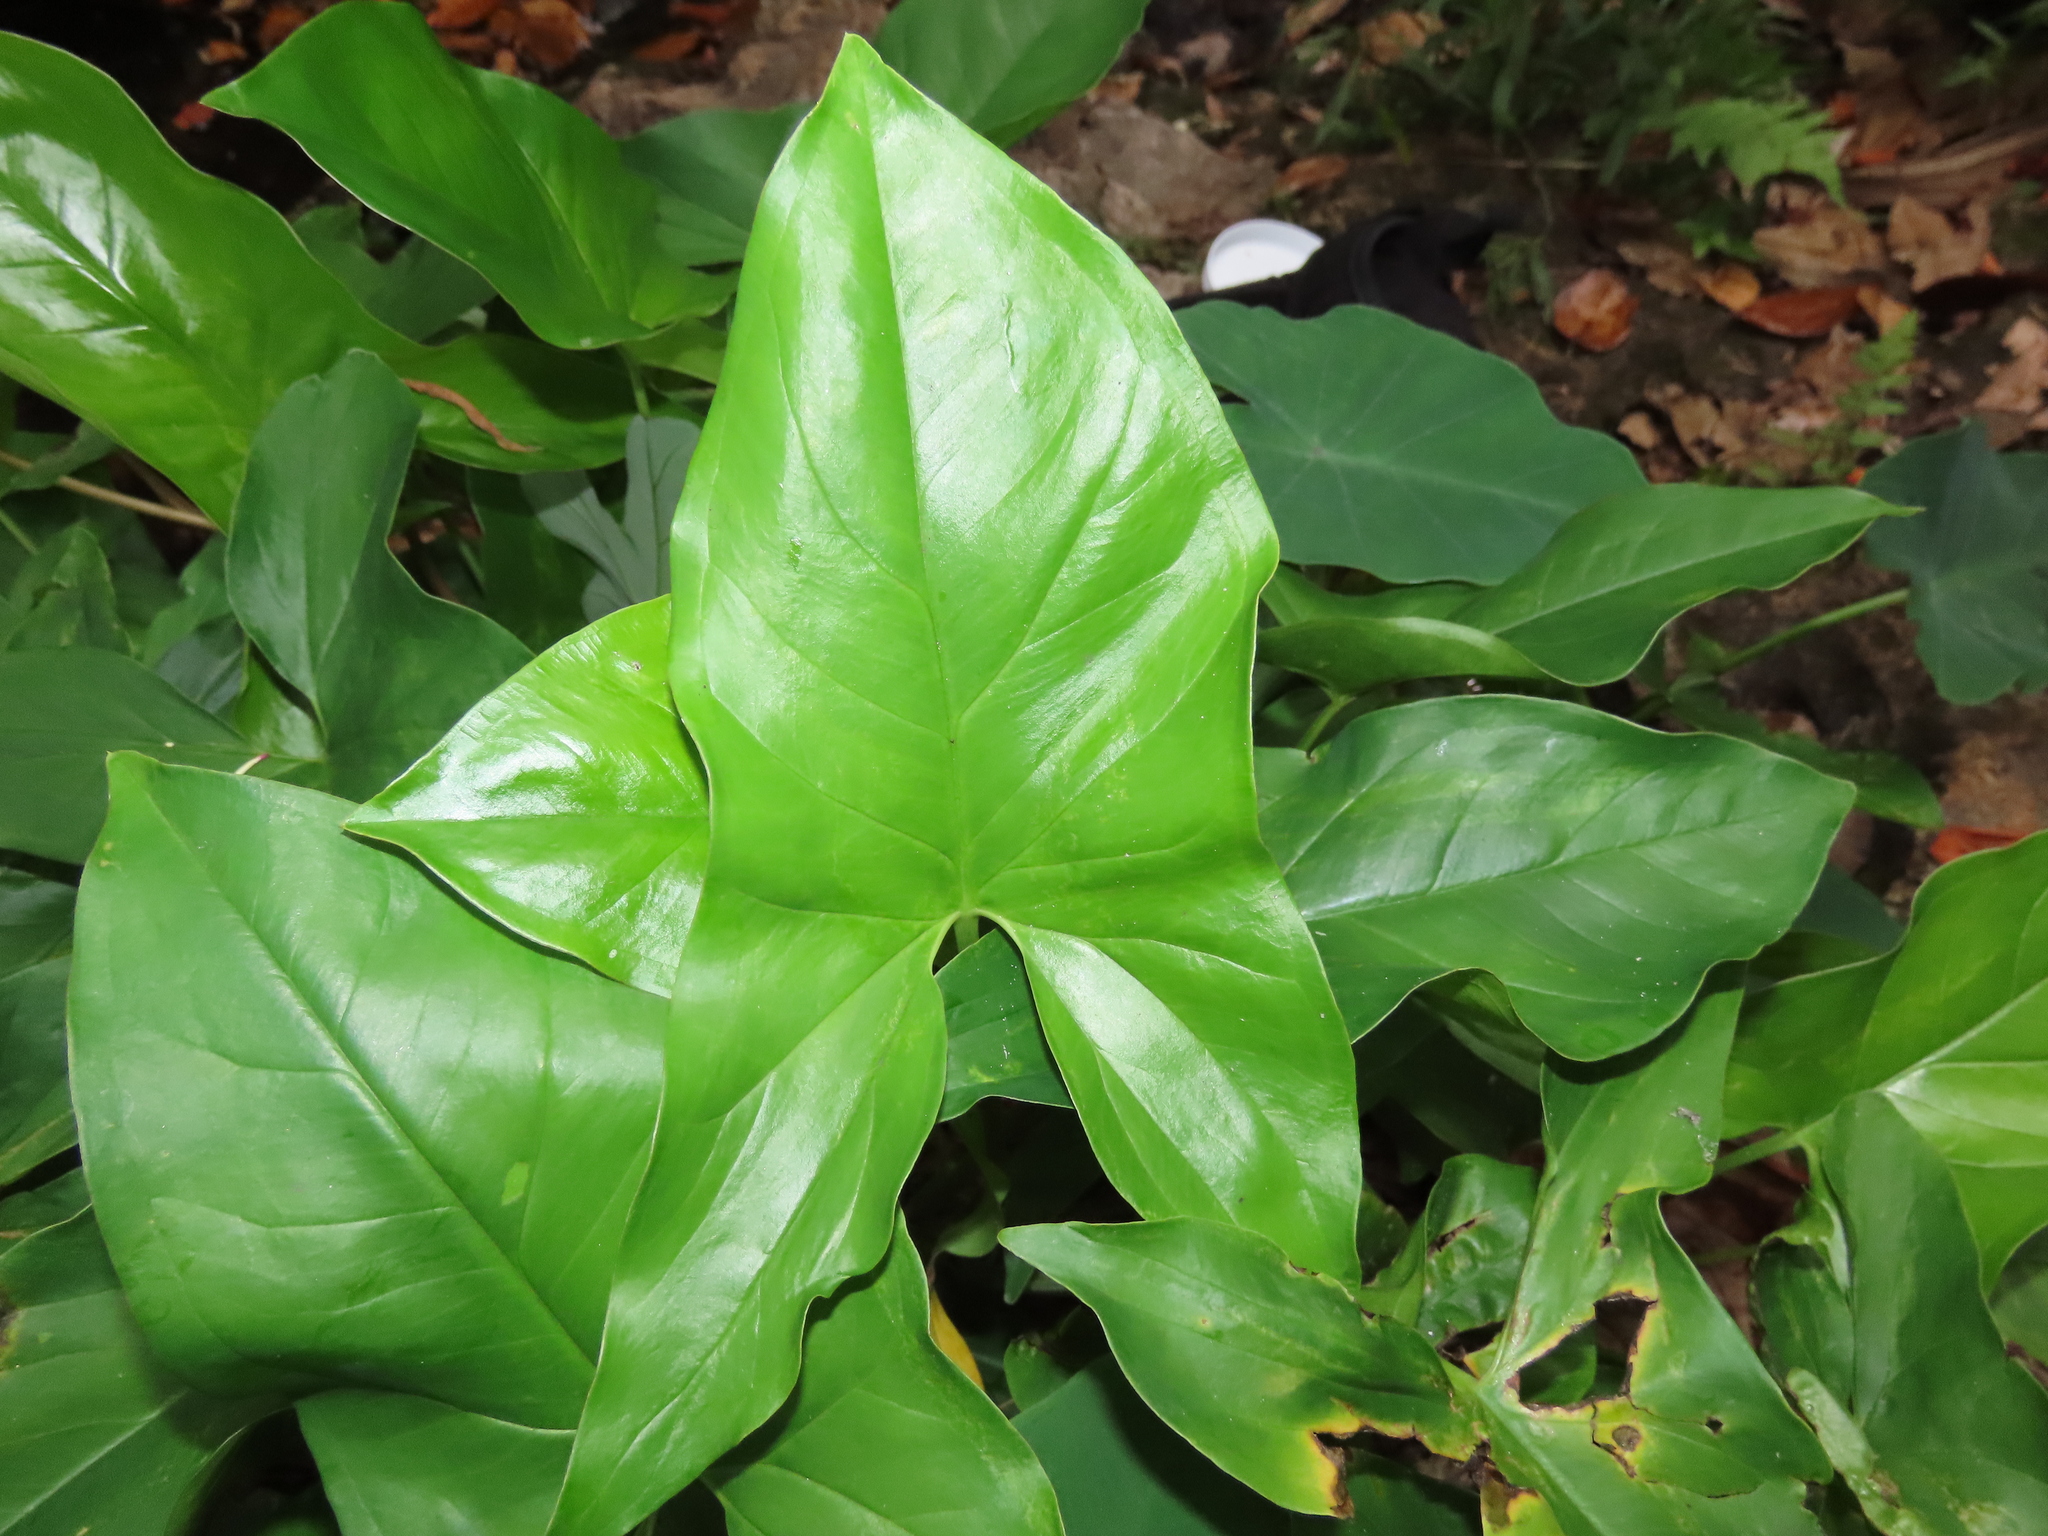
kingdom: Plantae
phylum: Tracheophyta
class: Liliopsida
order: Alismatales
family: Araceae
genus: Syngonium
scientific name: Syngonium podophyllum
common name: American evergreen
